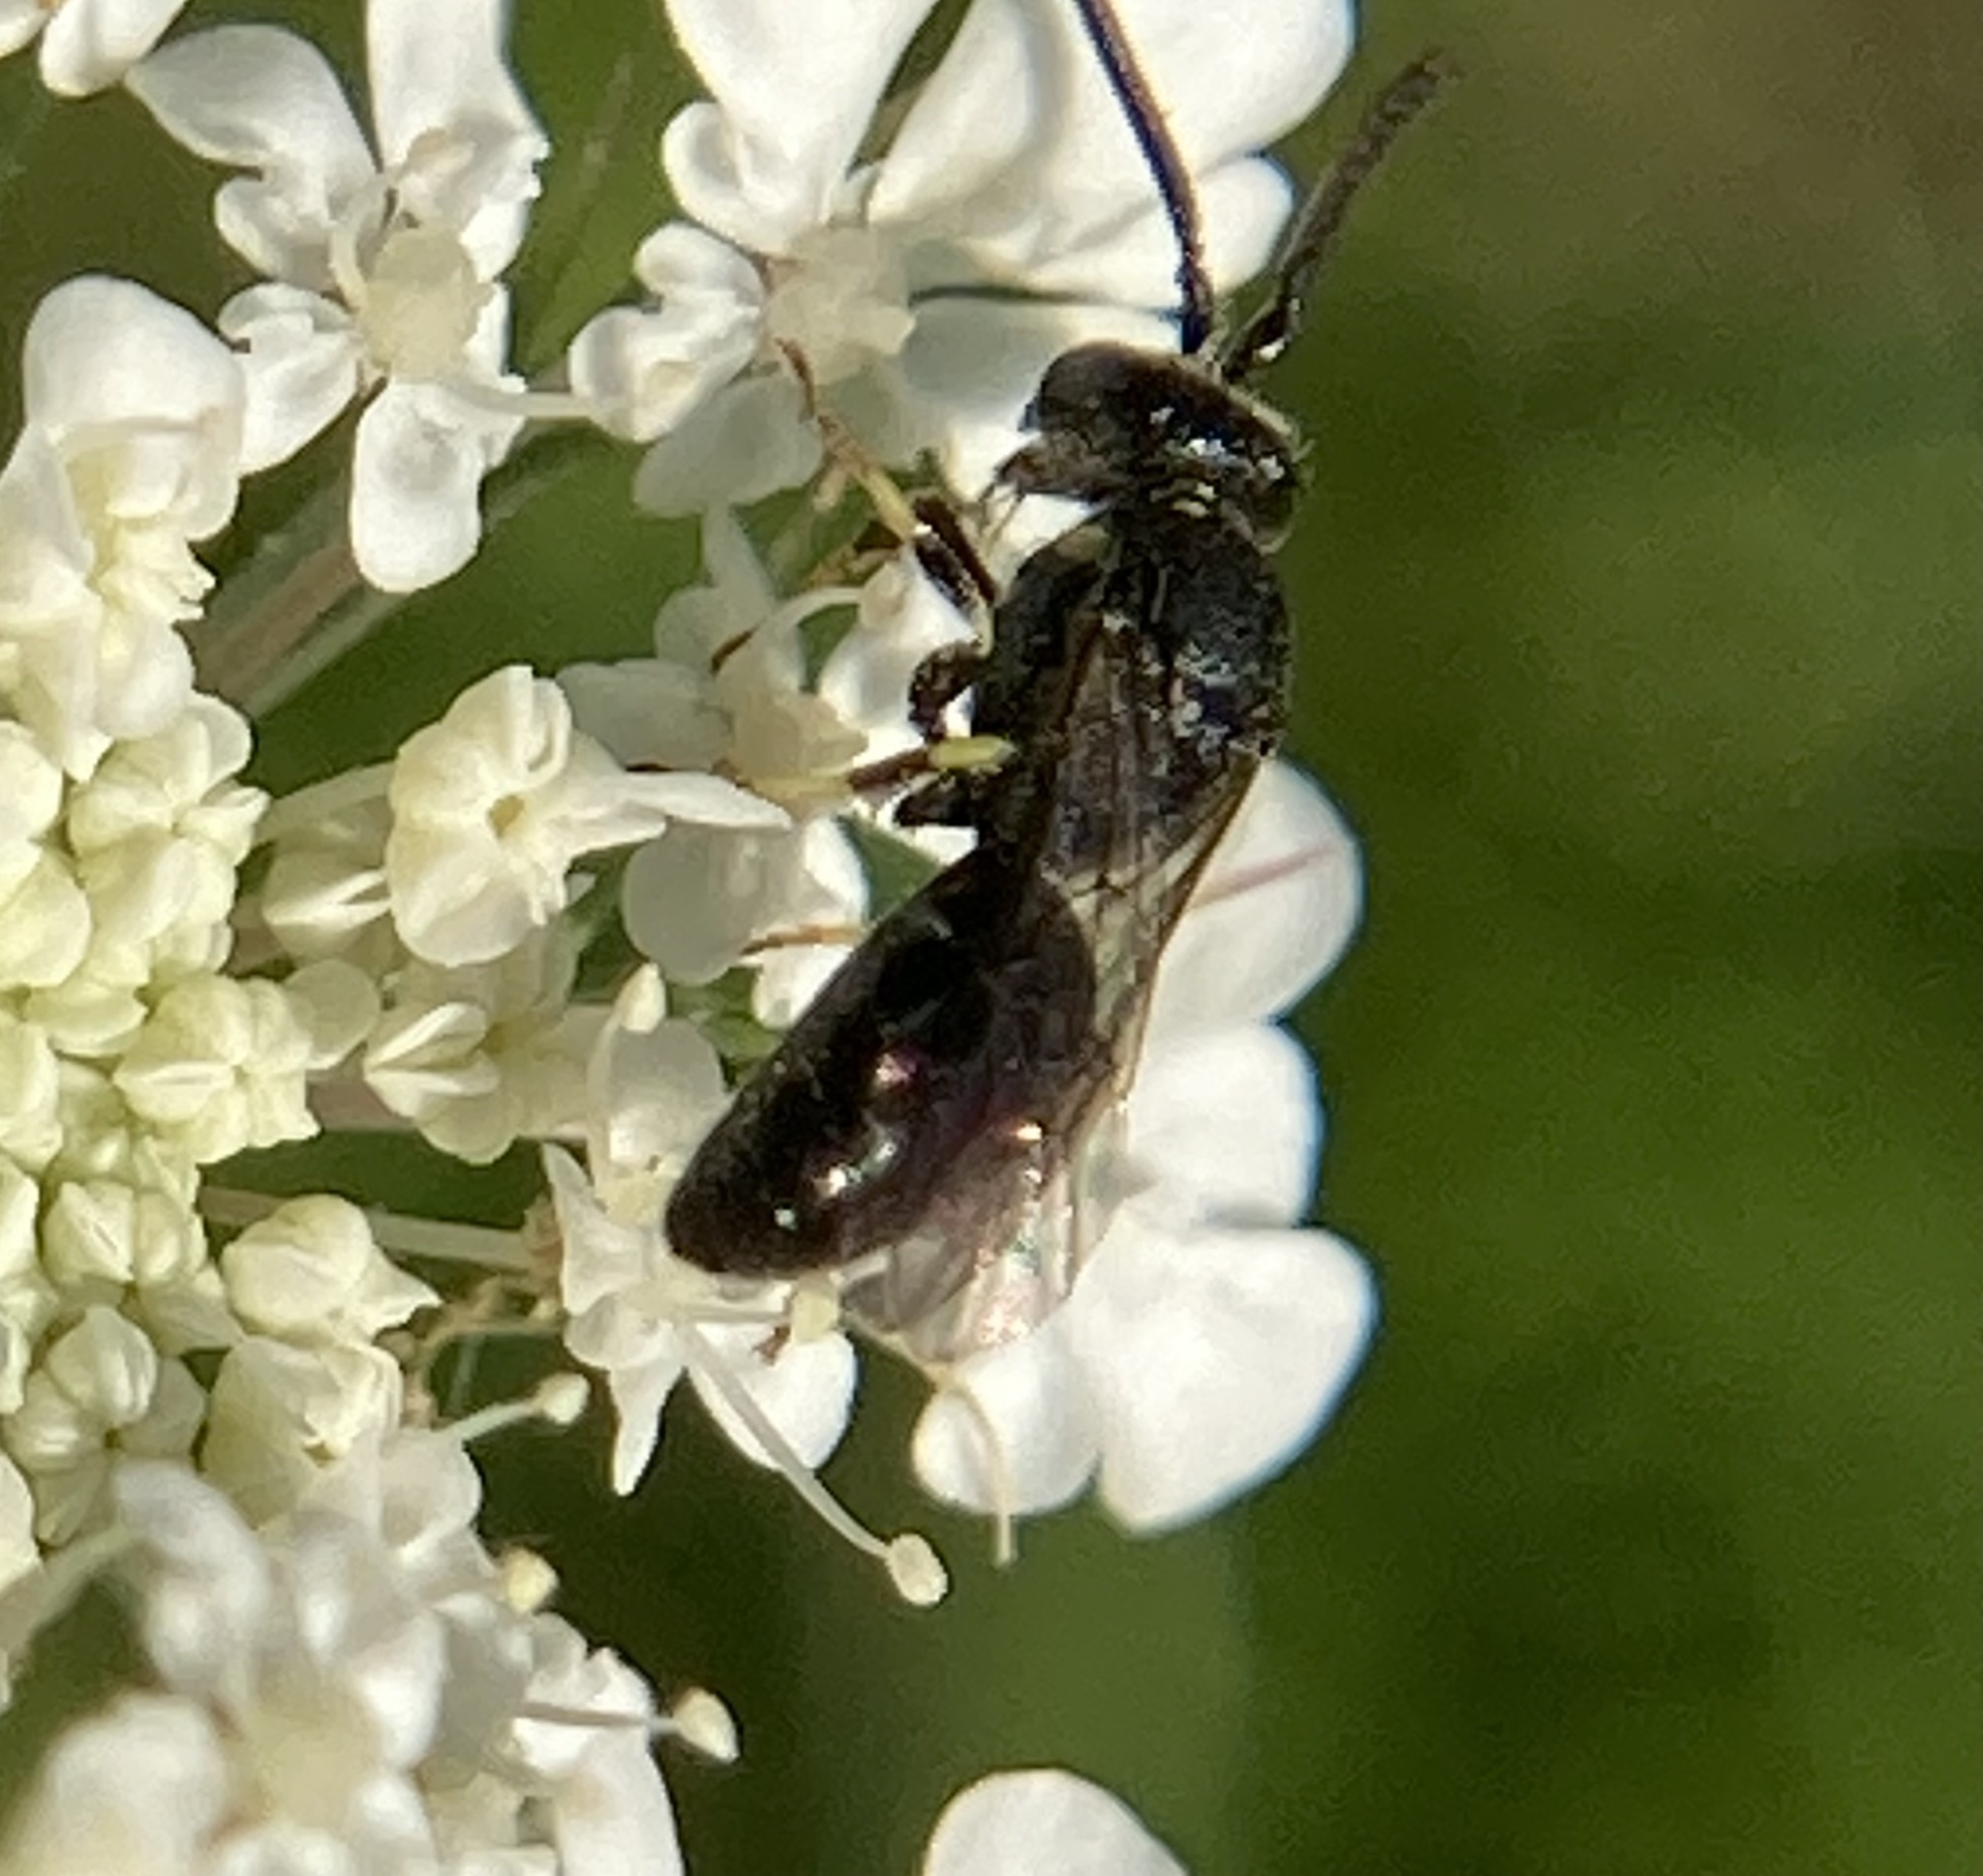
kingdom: Animalia
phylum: Arthropoda
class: Insecta
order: Hymenoptera
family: Colletidae
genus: Hylaeus
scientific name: Hylaeus
